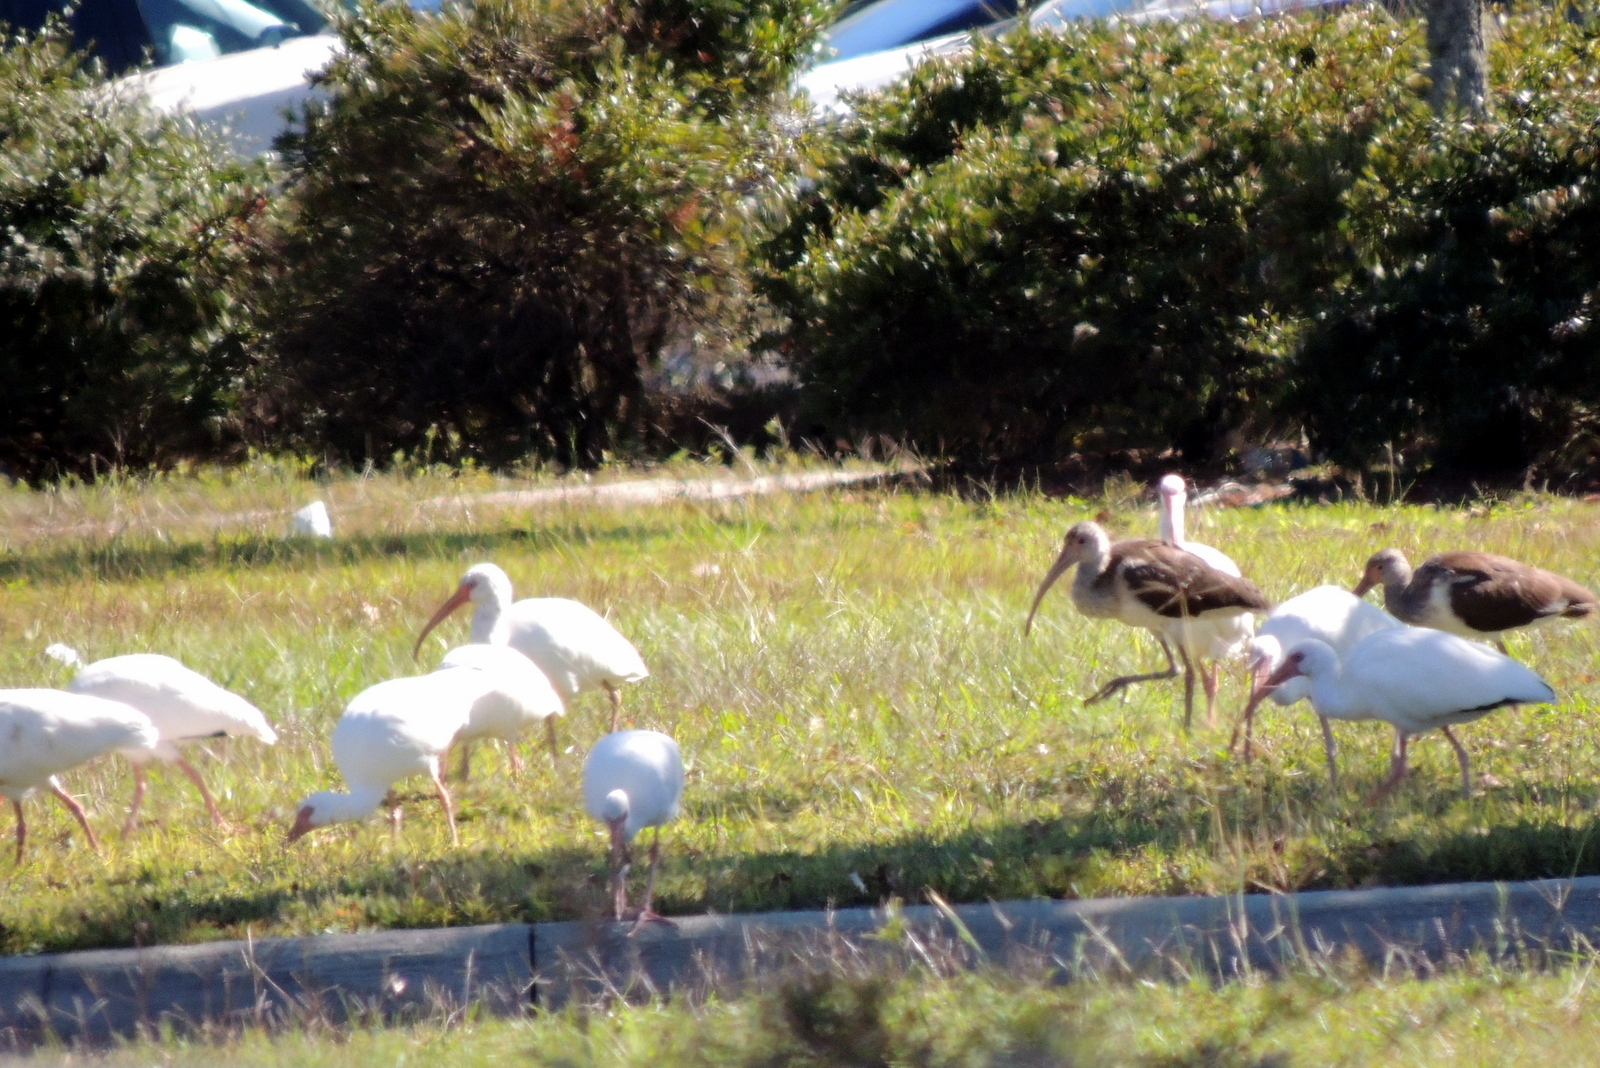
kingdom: Animalia
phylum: Chordata
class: Aves
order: Pelecaniformes
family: Threskiornithidae
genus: Eudocimus
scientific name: Eudocimus albus
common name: White ibis
